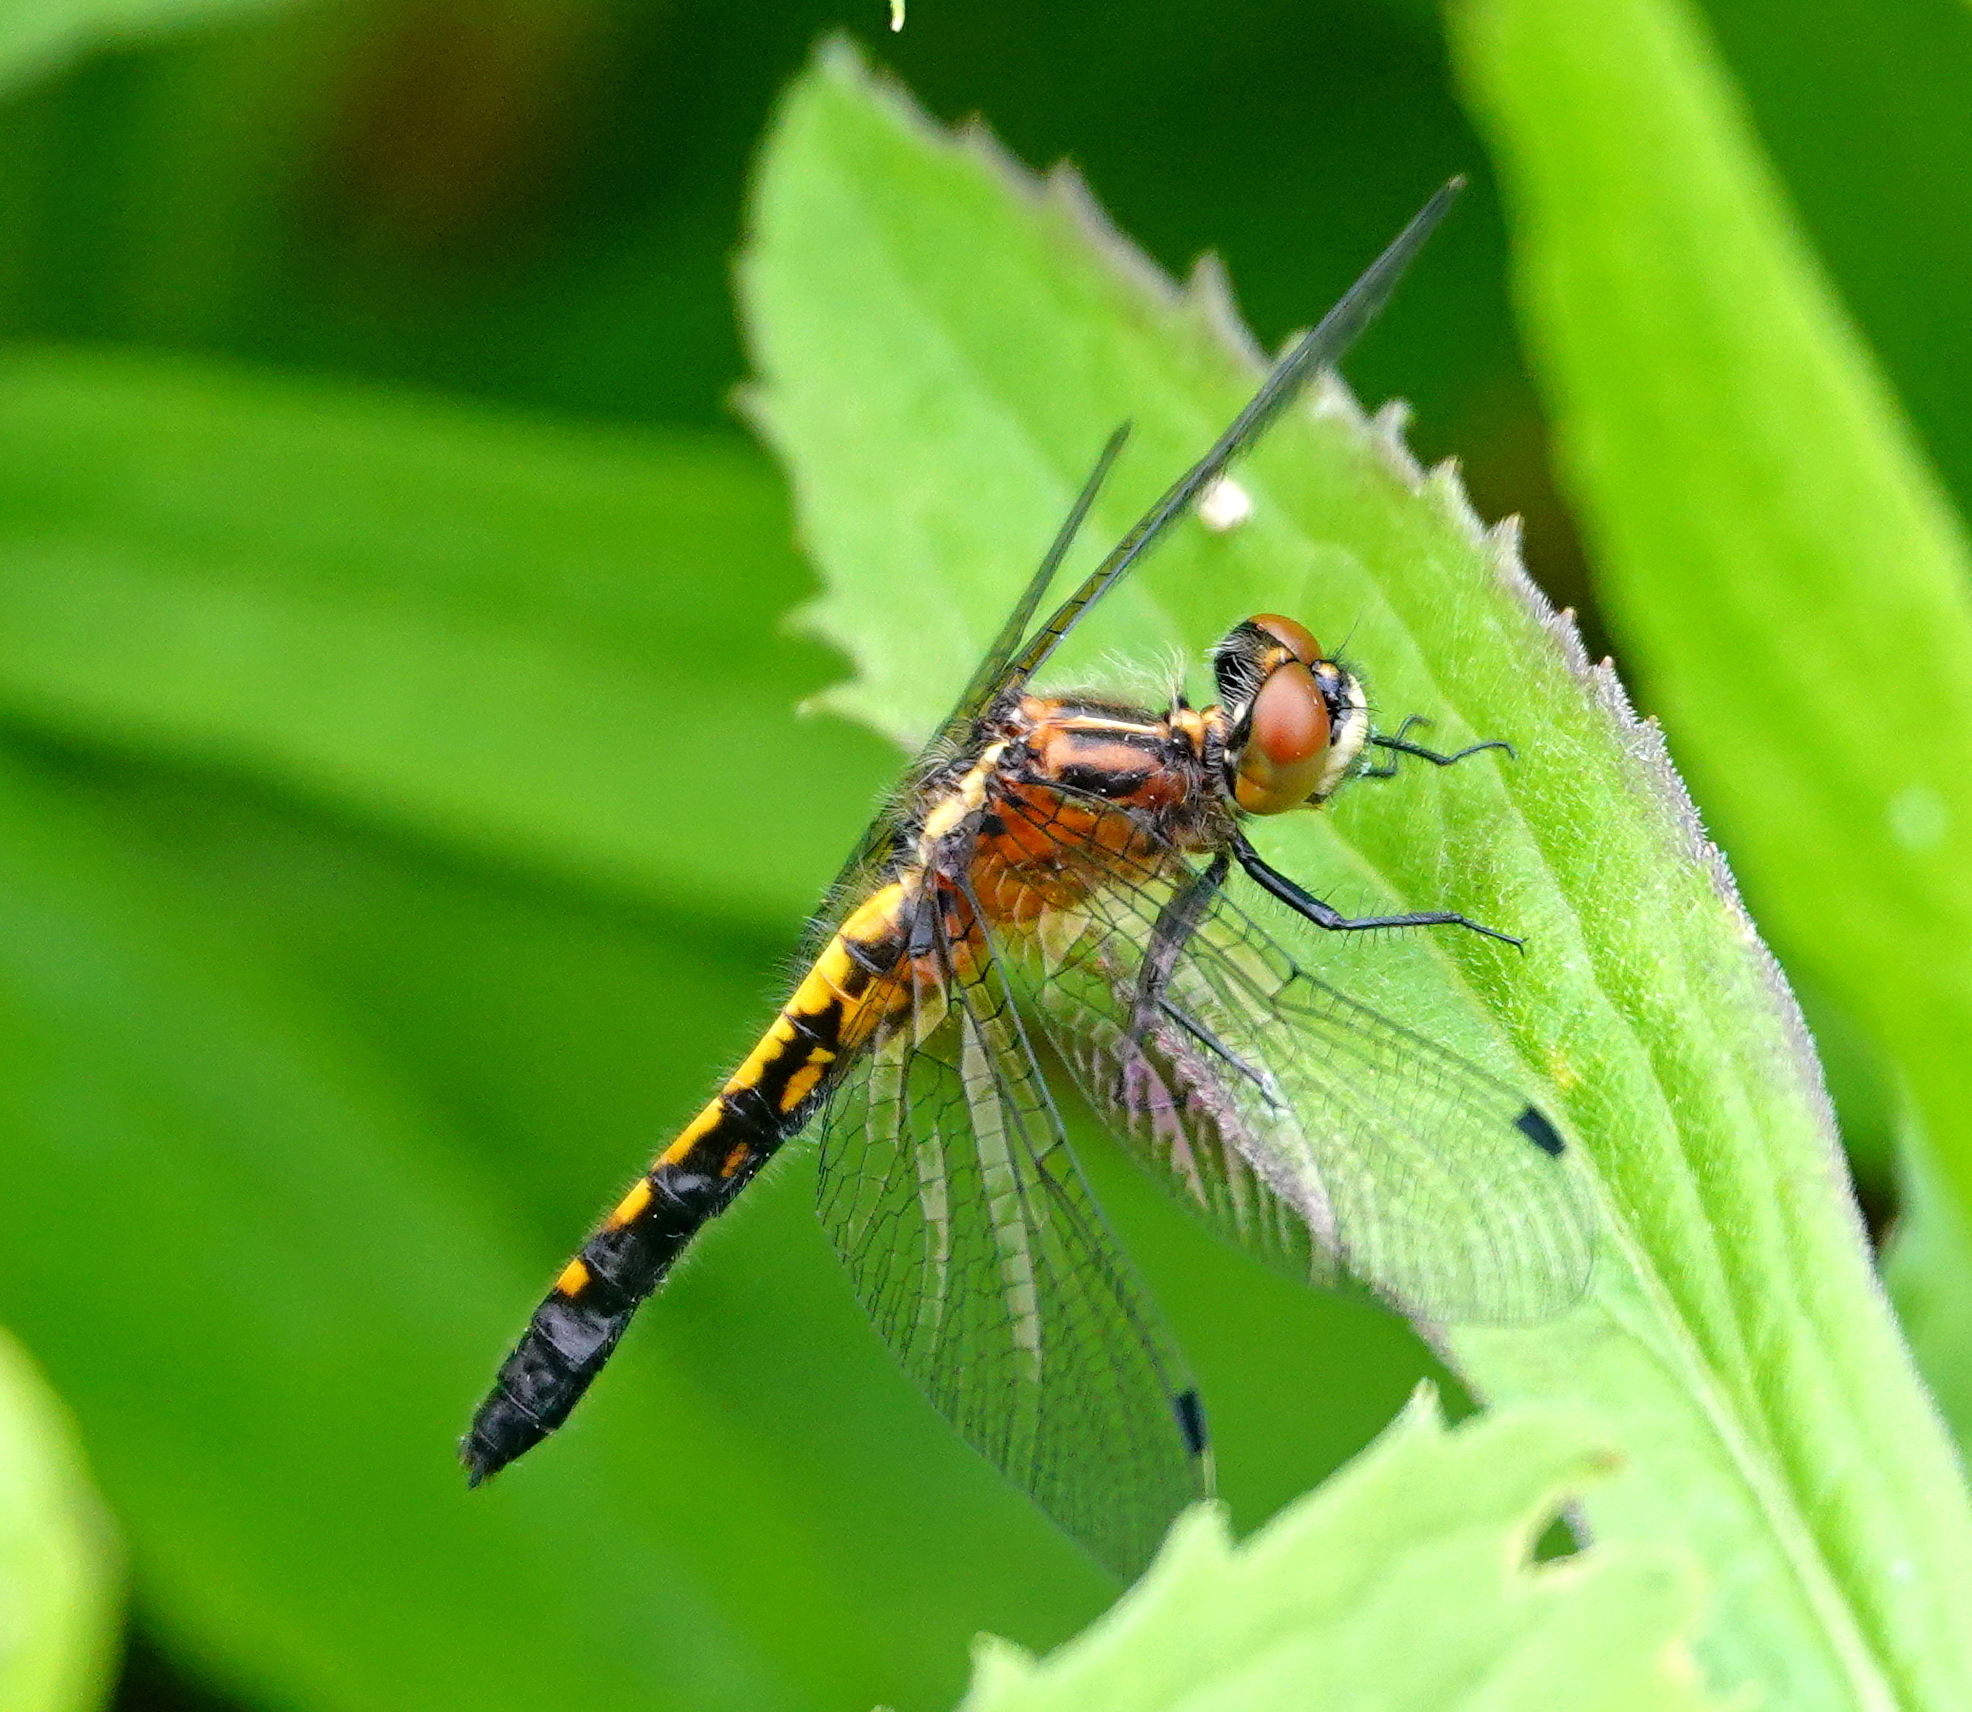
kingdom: Animalia
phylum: Arthropoda
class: Insecta
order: Odonata
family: Libellulidae
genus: Leucorrhinia
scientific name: Leucorrhinia intacta
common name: Dot-tailed whiteface
